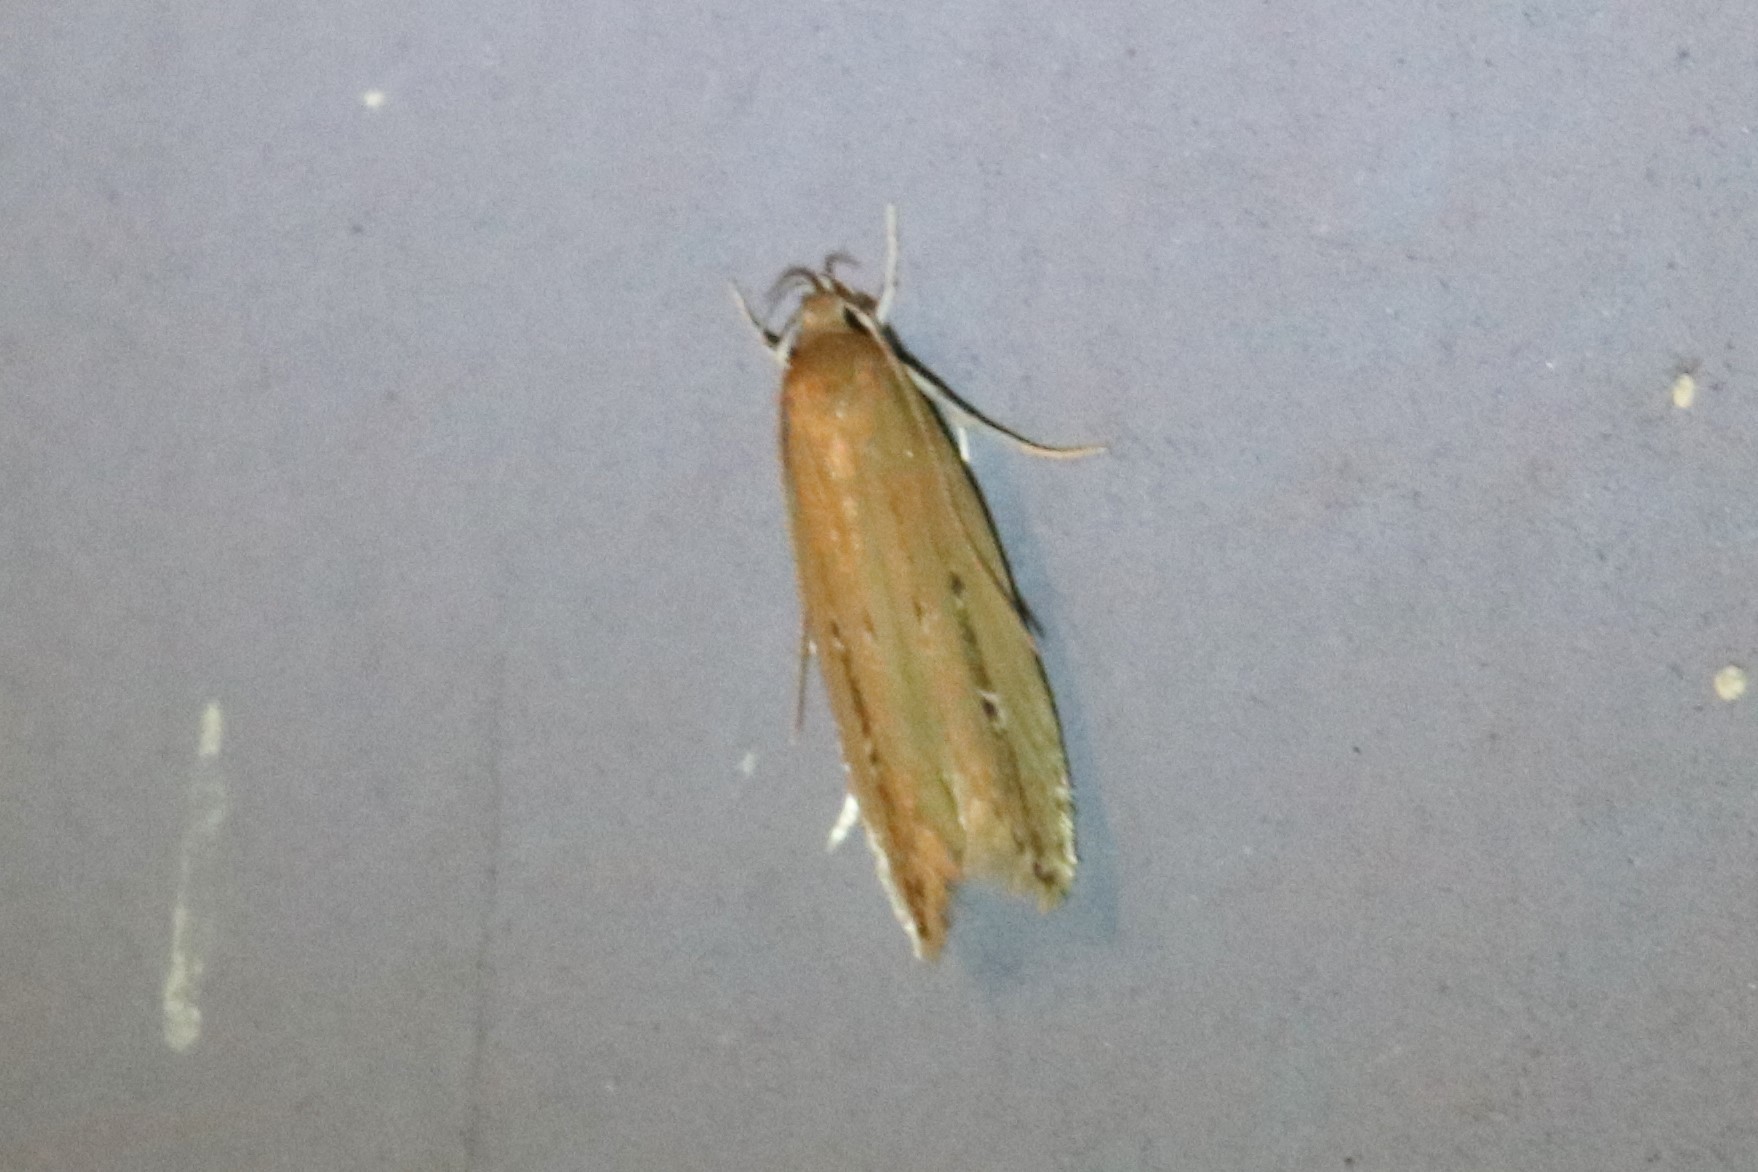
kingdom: Animalia
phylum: Arthropoda
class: Insecta
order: Lepidoptera
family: Cosmopterigidae
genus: Limnaecia
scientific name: Limnaecia phragmitella
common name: Bulrush cosmet
